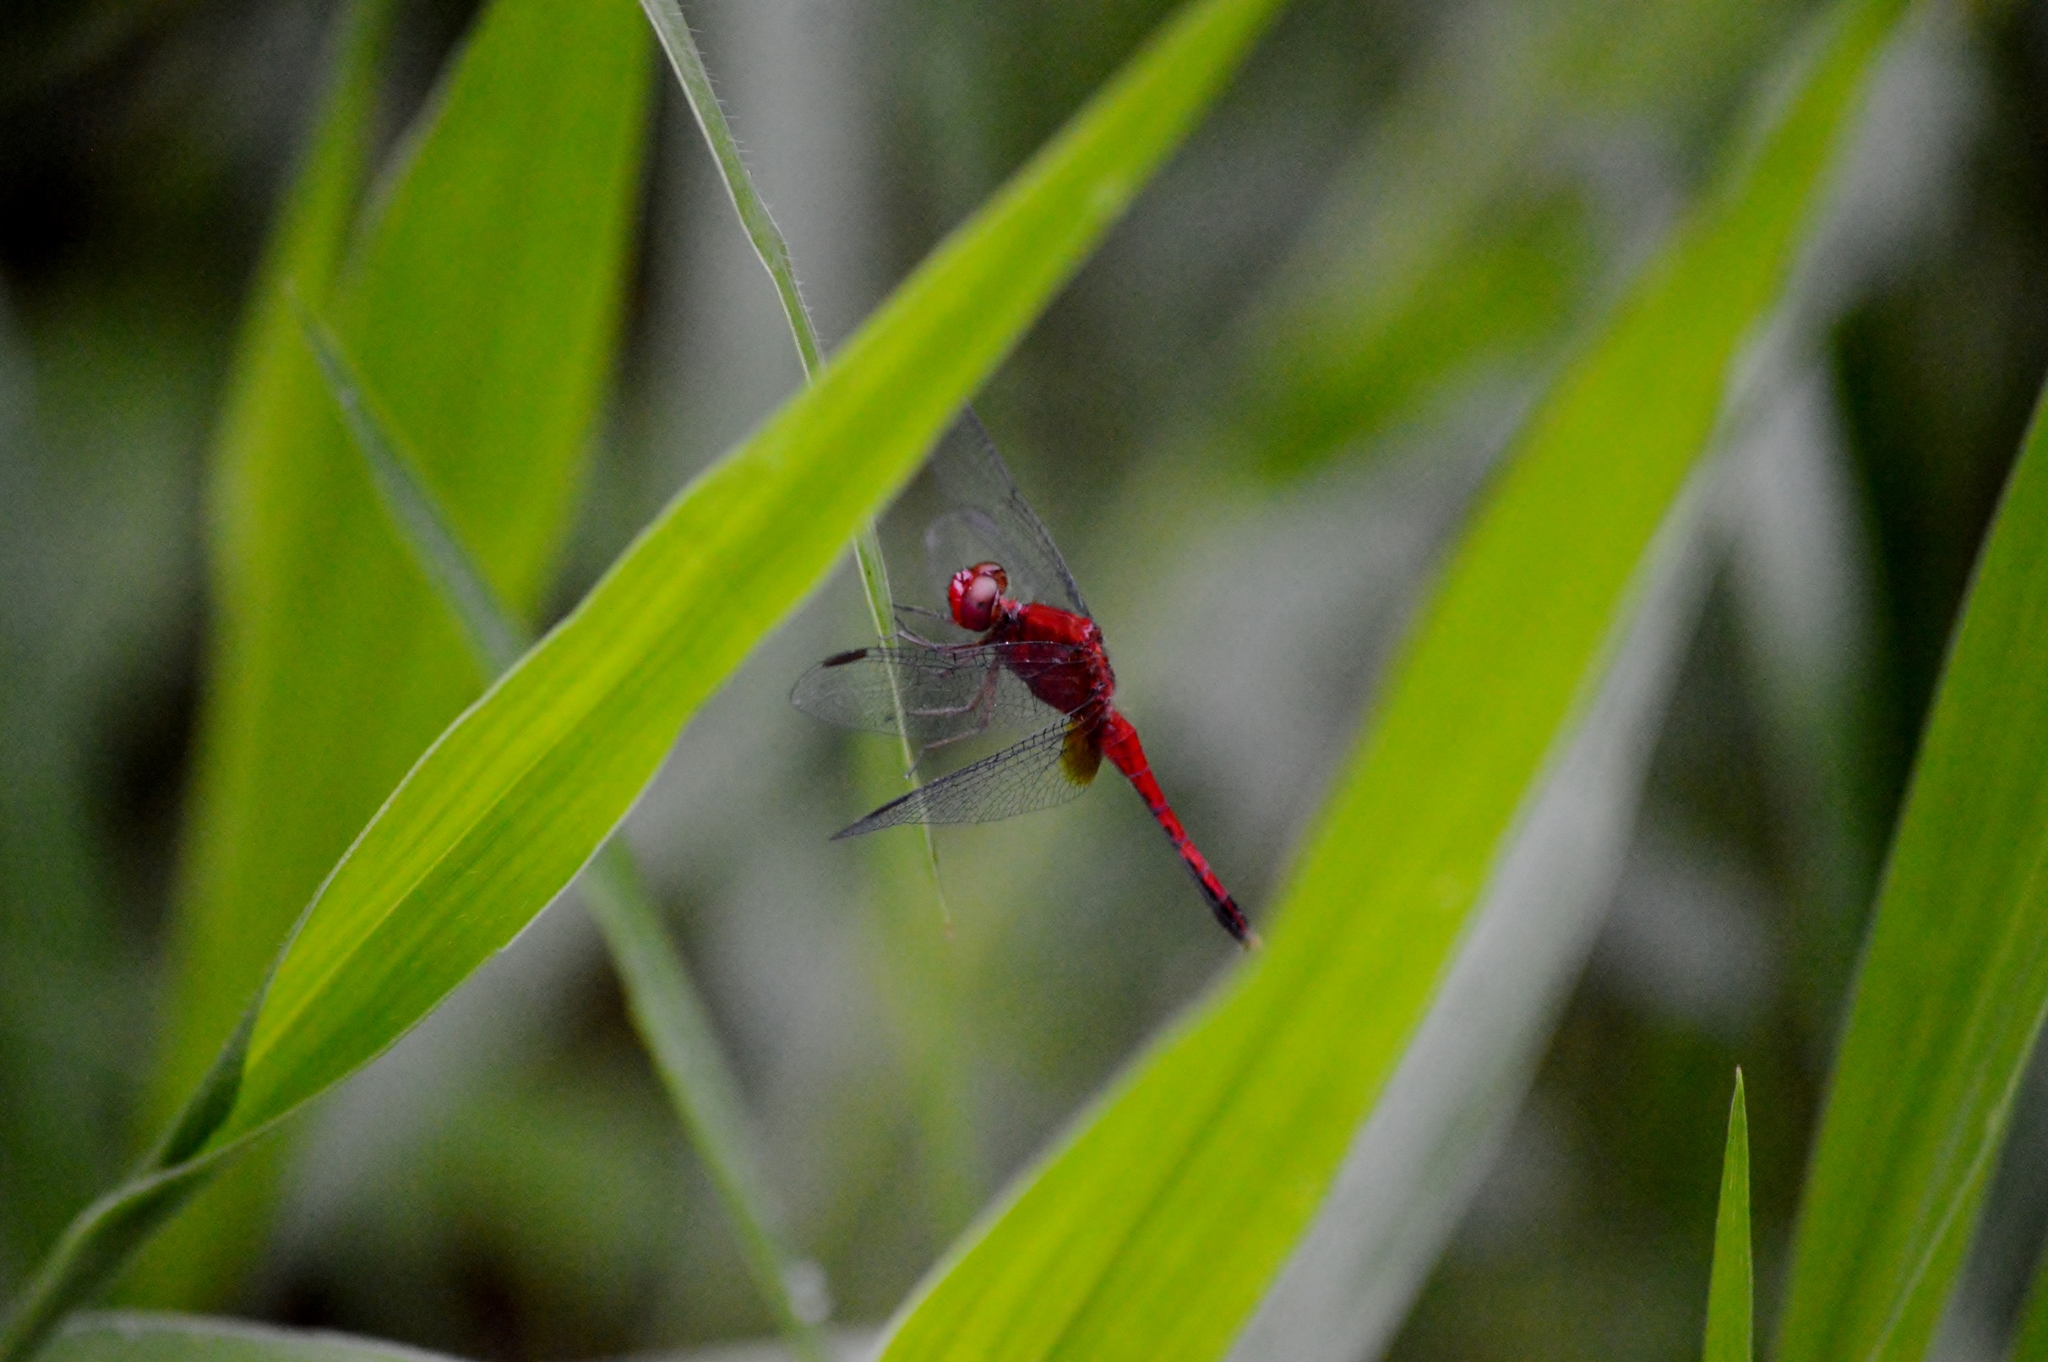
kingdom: Animalia
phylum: Arthropoda
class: Insecta
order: Odonata
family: Libellulidae
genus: Erythrodiplax
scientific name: Erythrodiplax fusca
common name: Red-faced dragonlet
